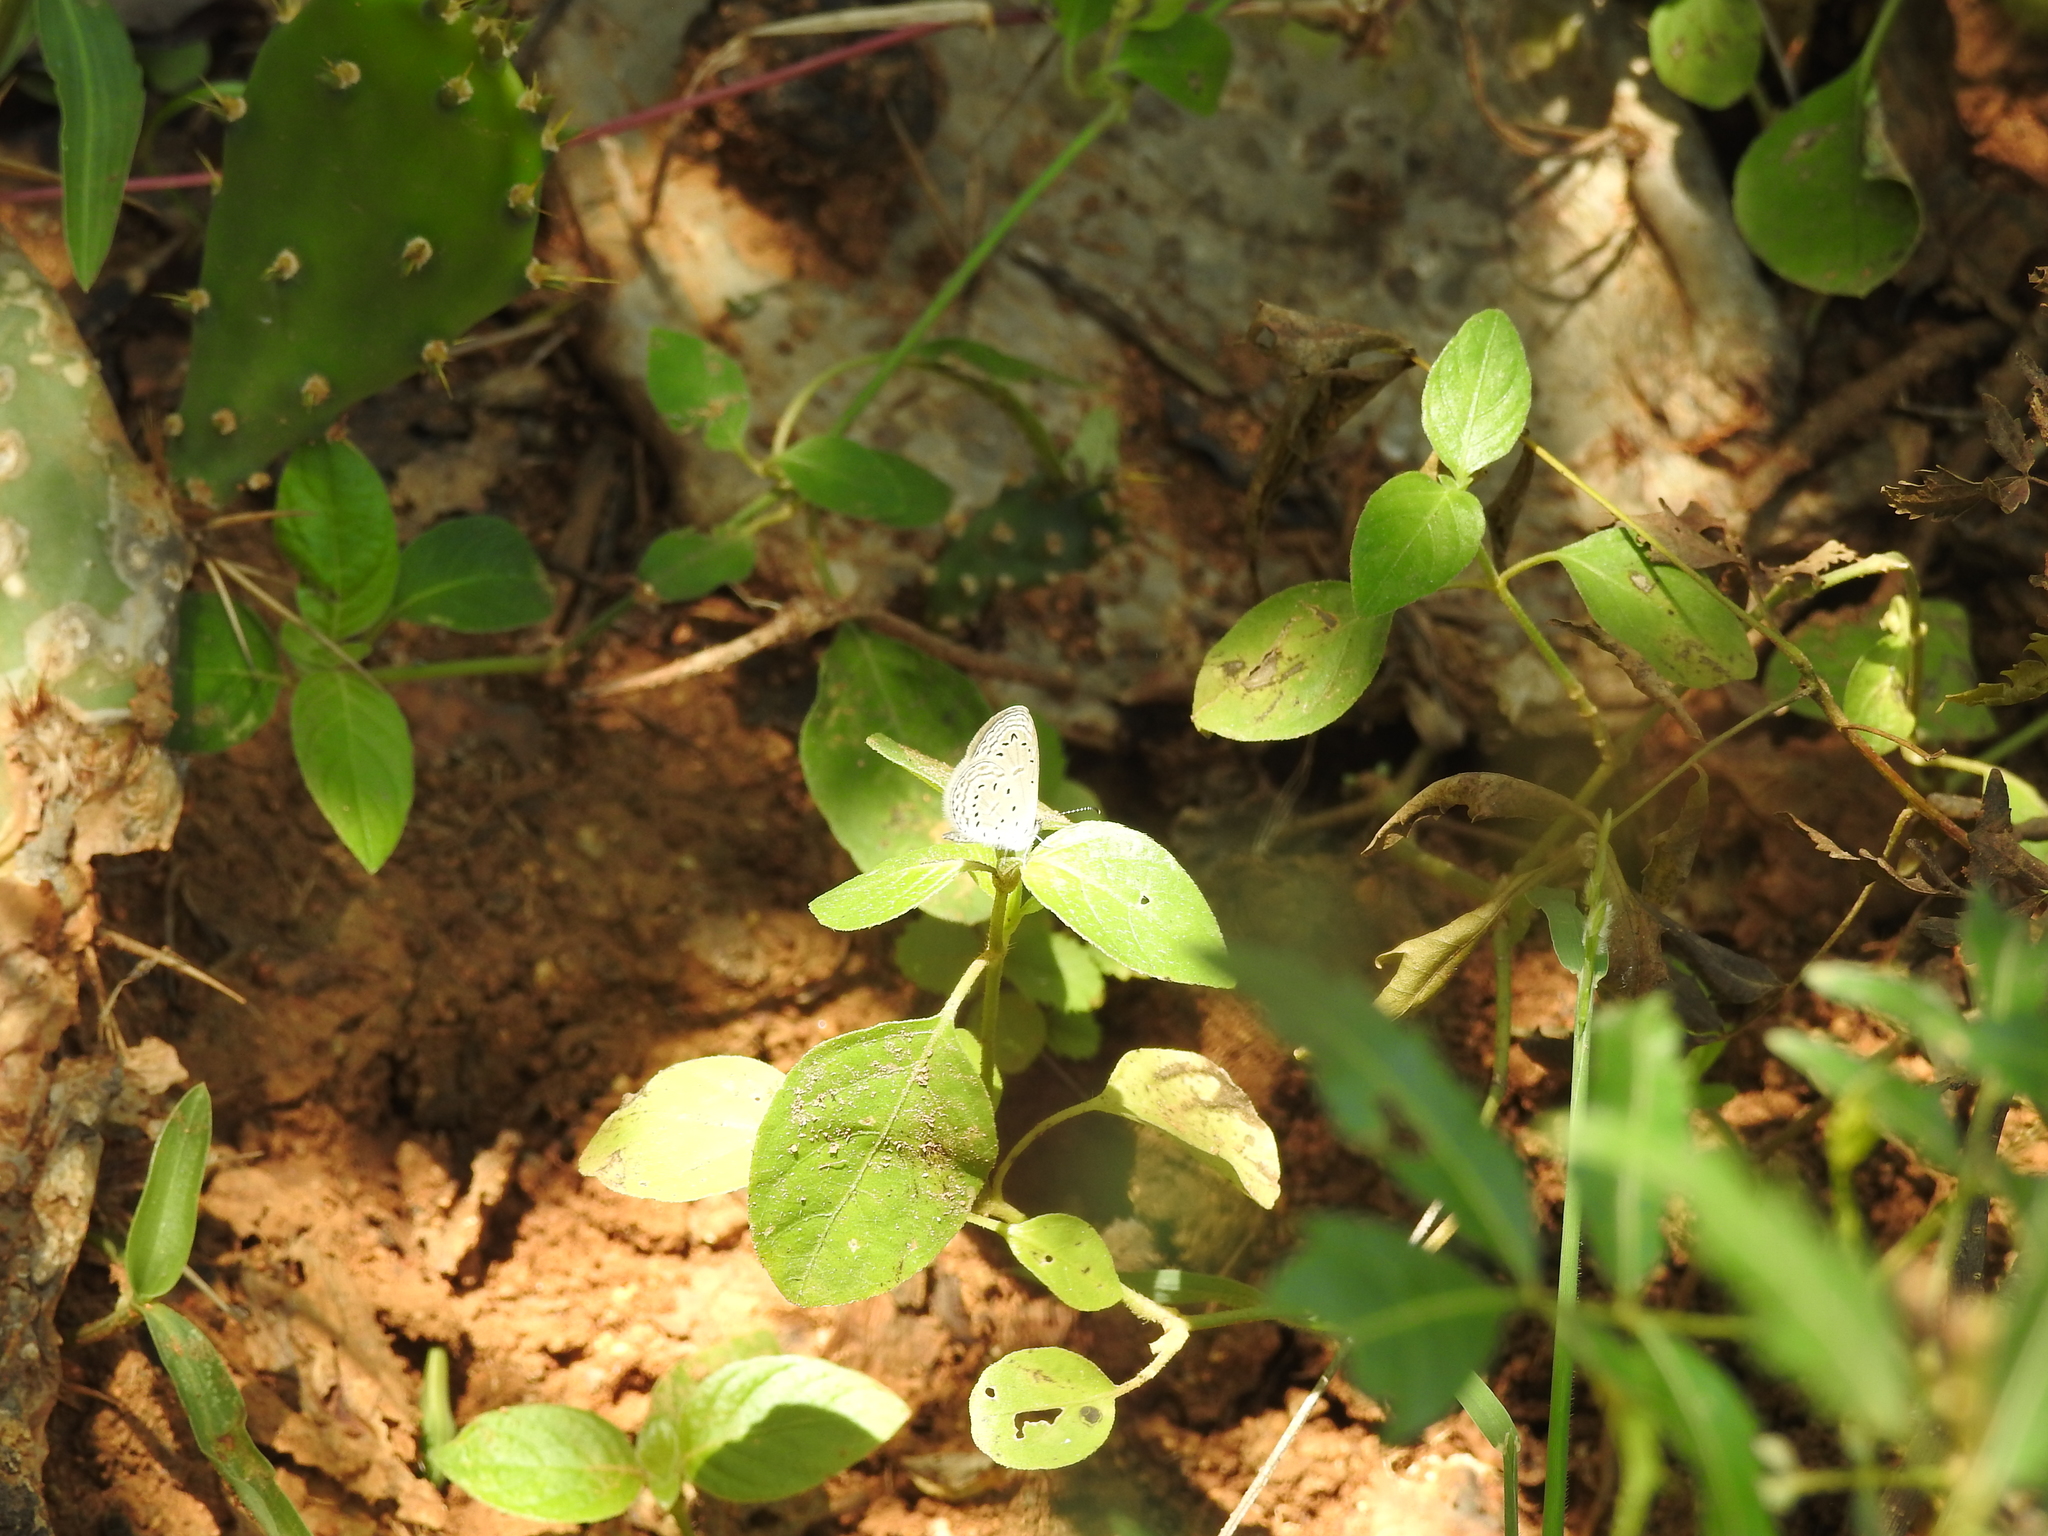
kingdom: Animalia
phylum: Arthropoda
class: Insecta
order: Lepidoptera
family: Lycaenidae
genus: Zizula
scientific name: Zizula hylax
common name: Gaika blue
